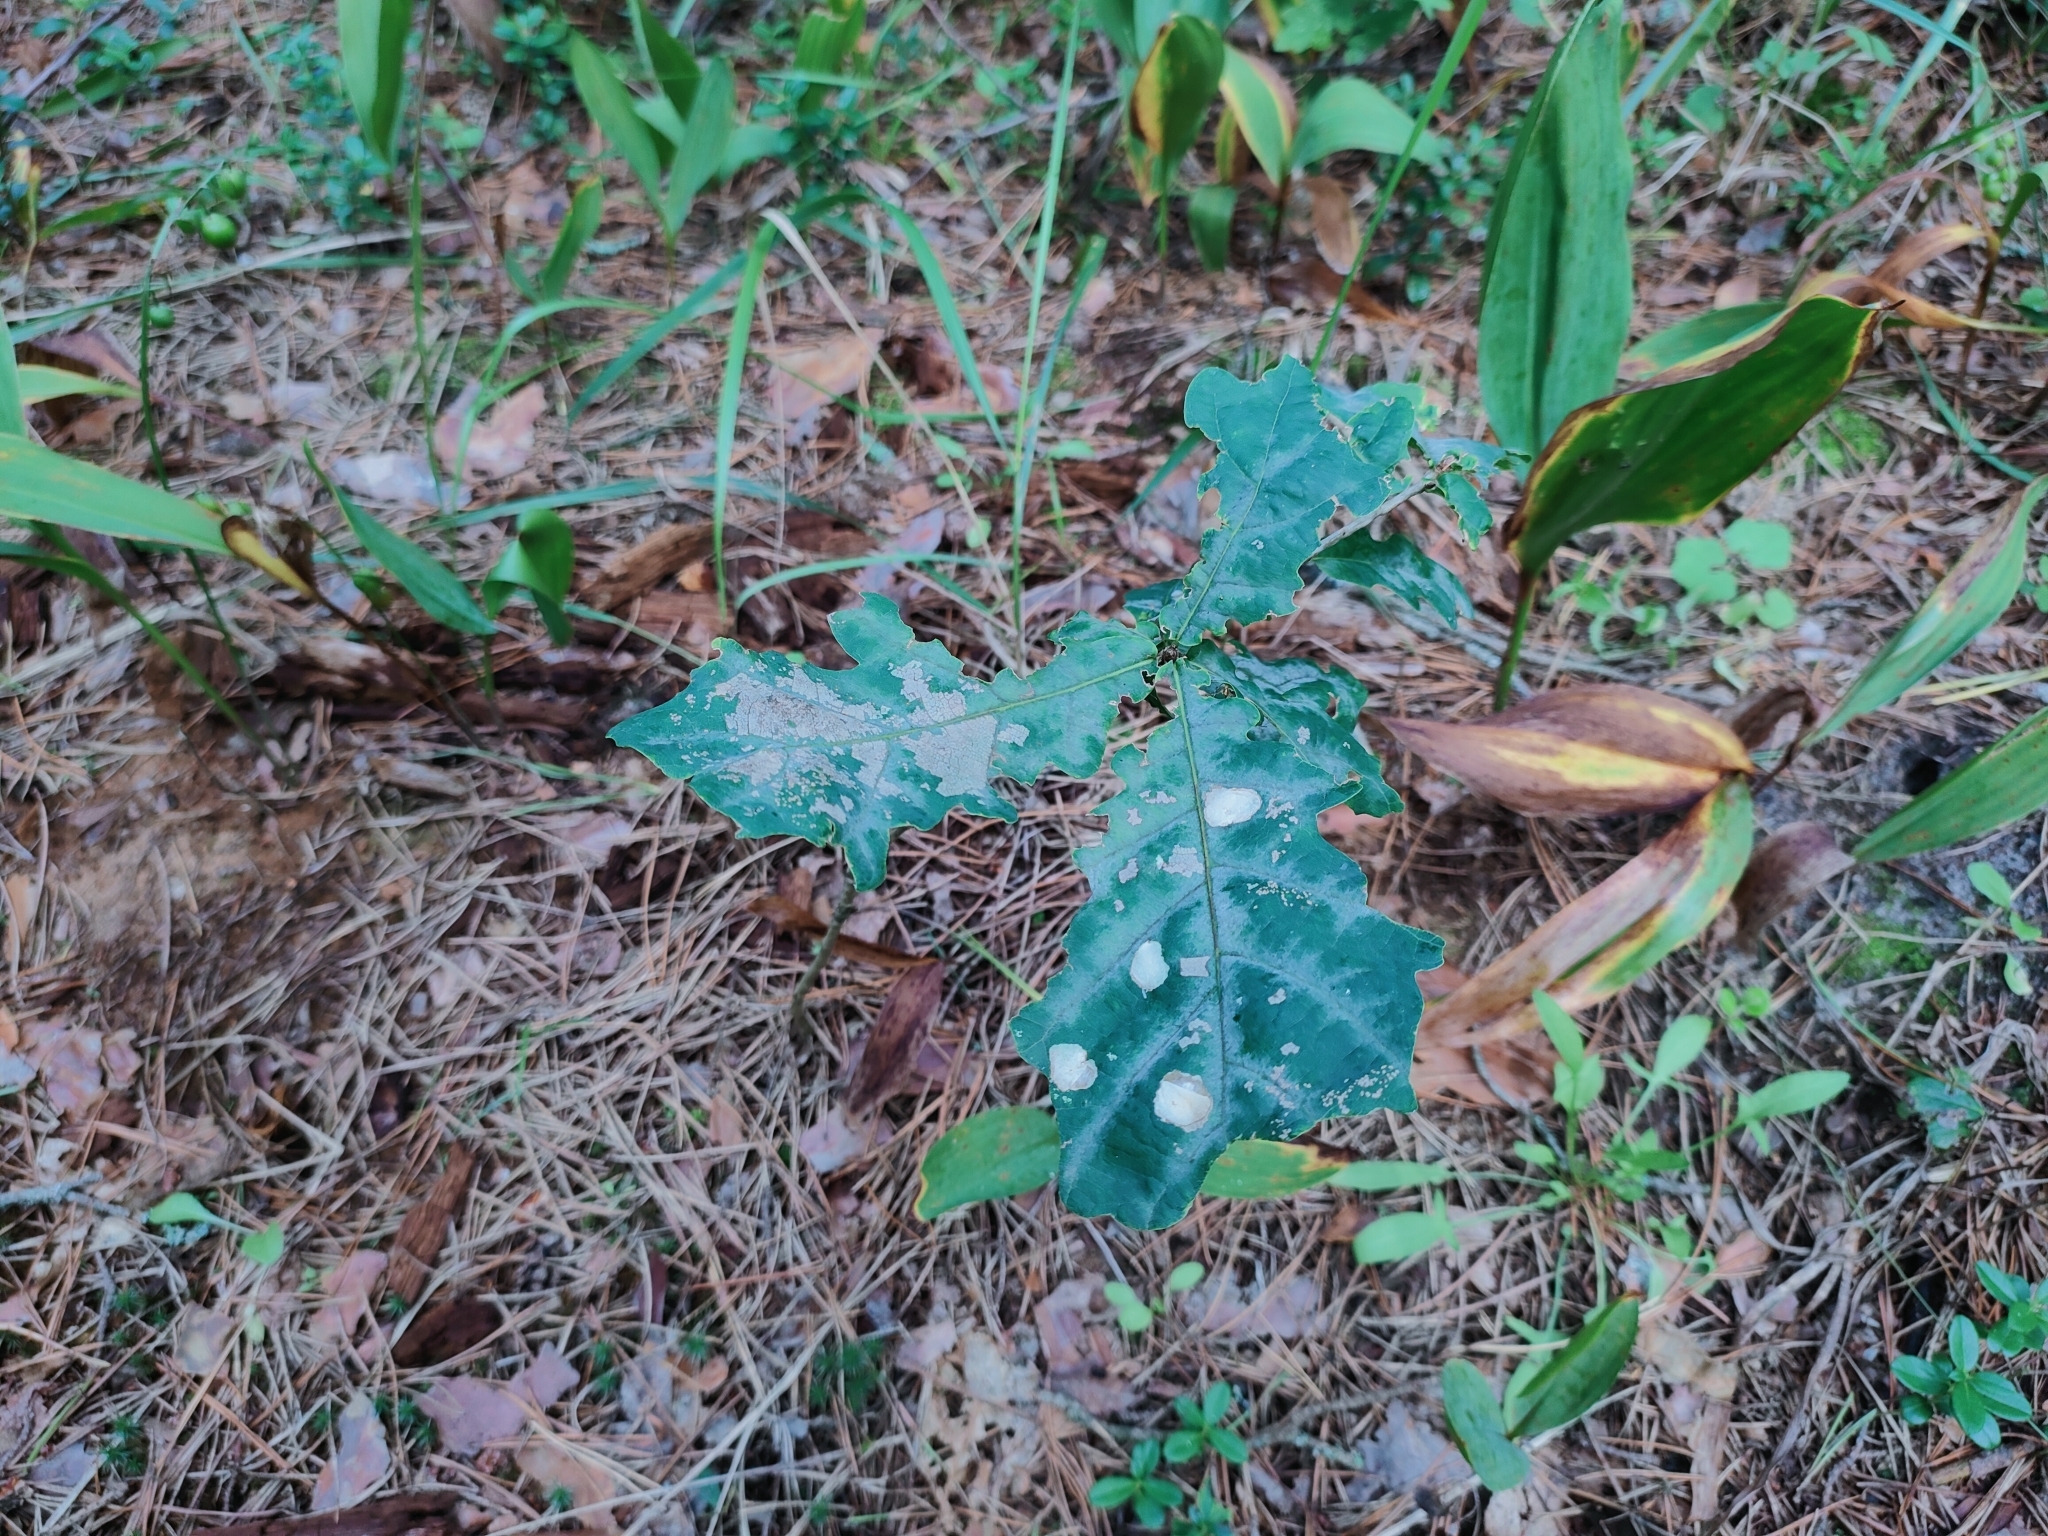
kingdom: Plantae
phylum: Tracheophyta
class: Magnoliopsida
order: Fagales
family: Fagaceae
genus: Quercus
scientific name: Quercus robur
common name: Pedunculate oak
